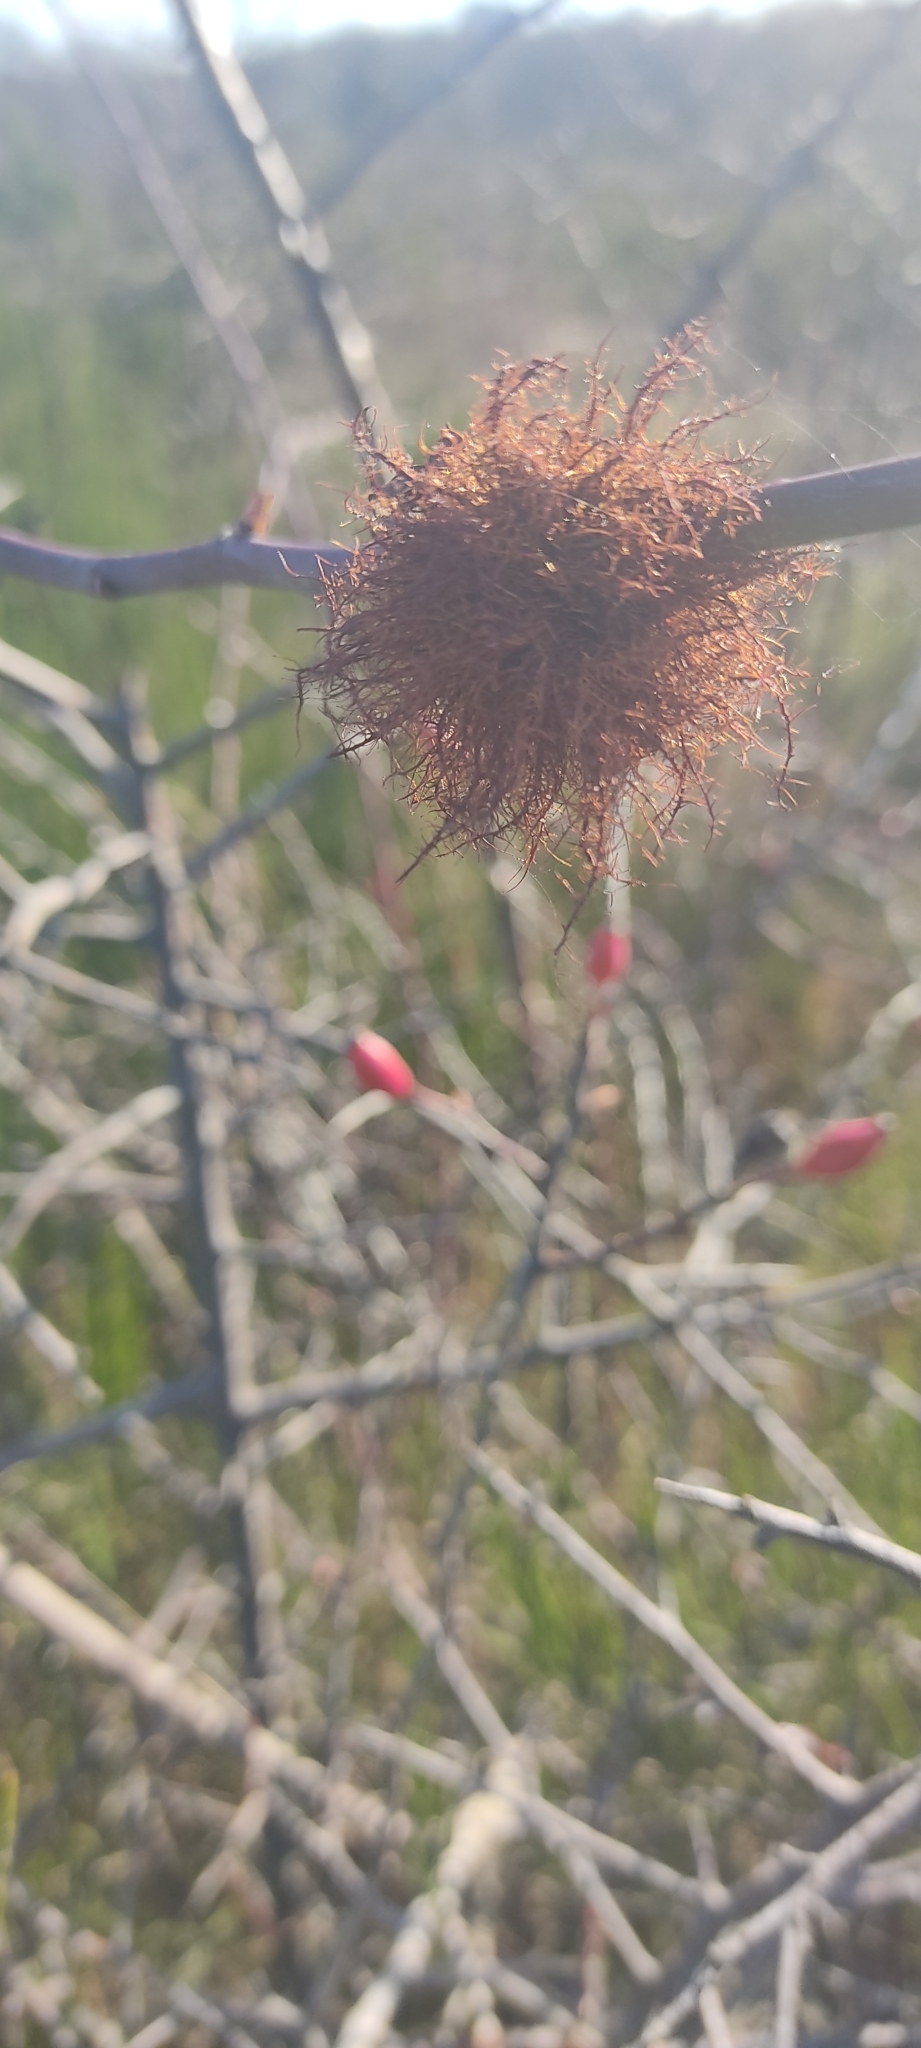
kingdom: Animalia
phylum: Arthropoda
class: Insecta
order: Hymenoptera
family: Cynipidae
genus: Diplolepis
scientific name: Diplolepis rosae
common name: Bedeguar gall
